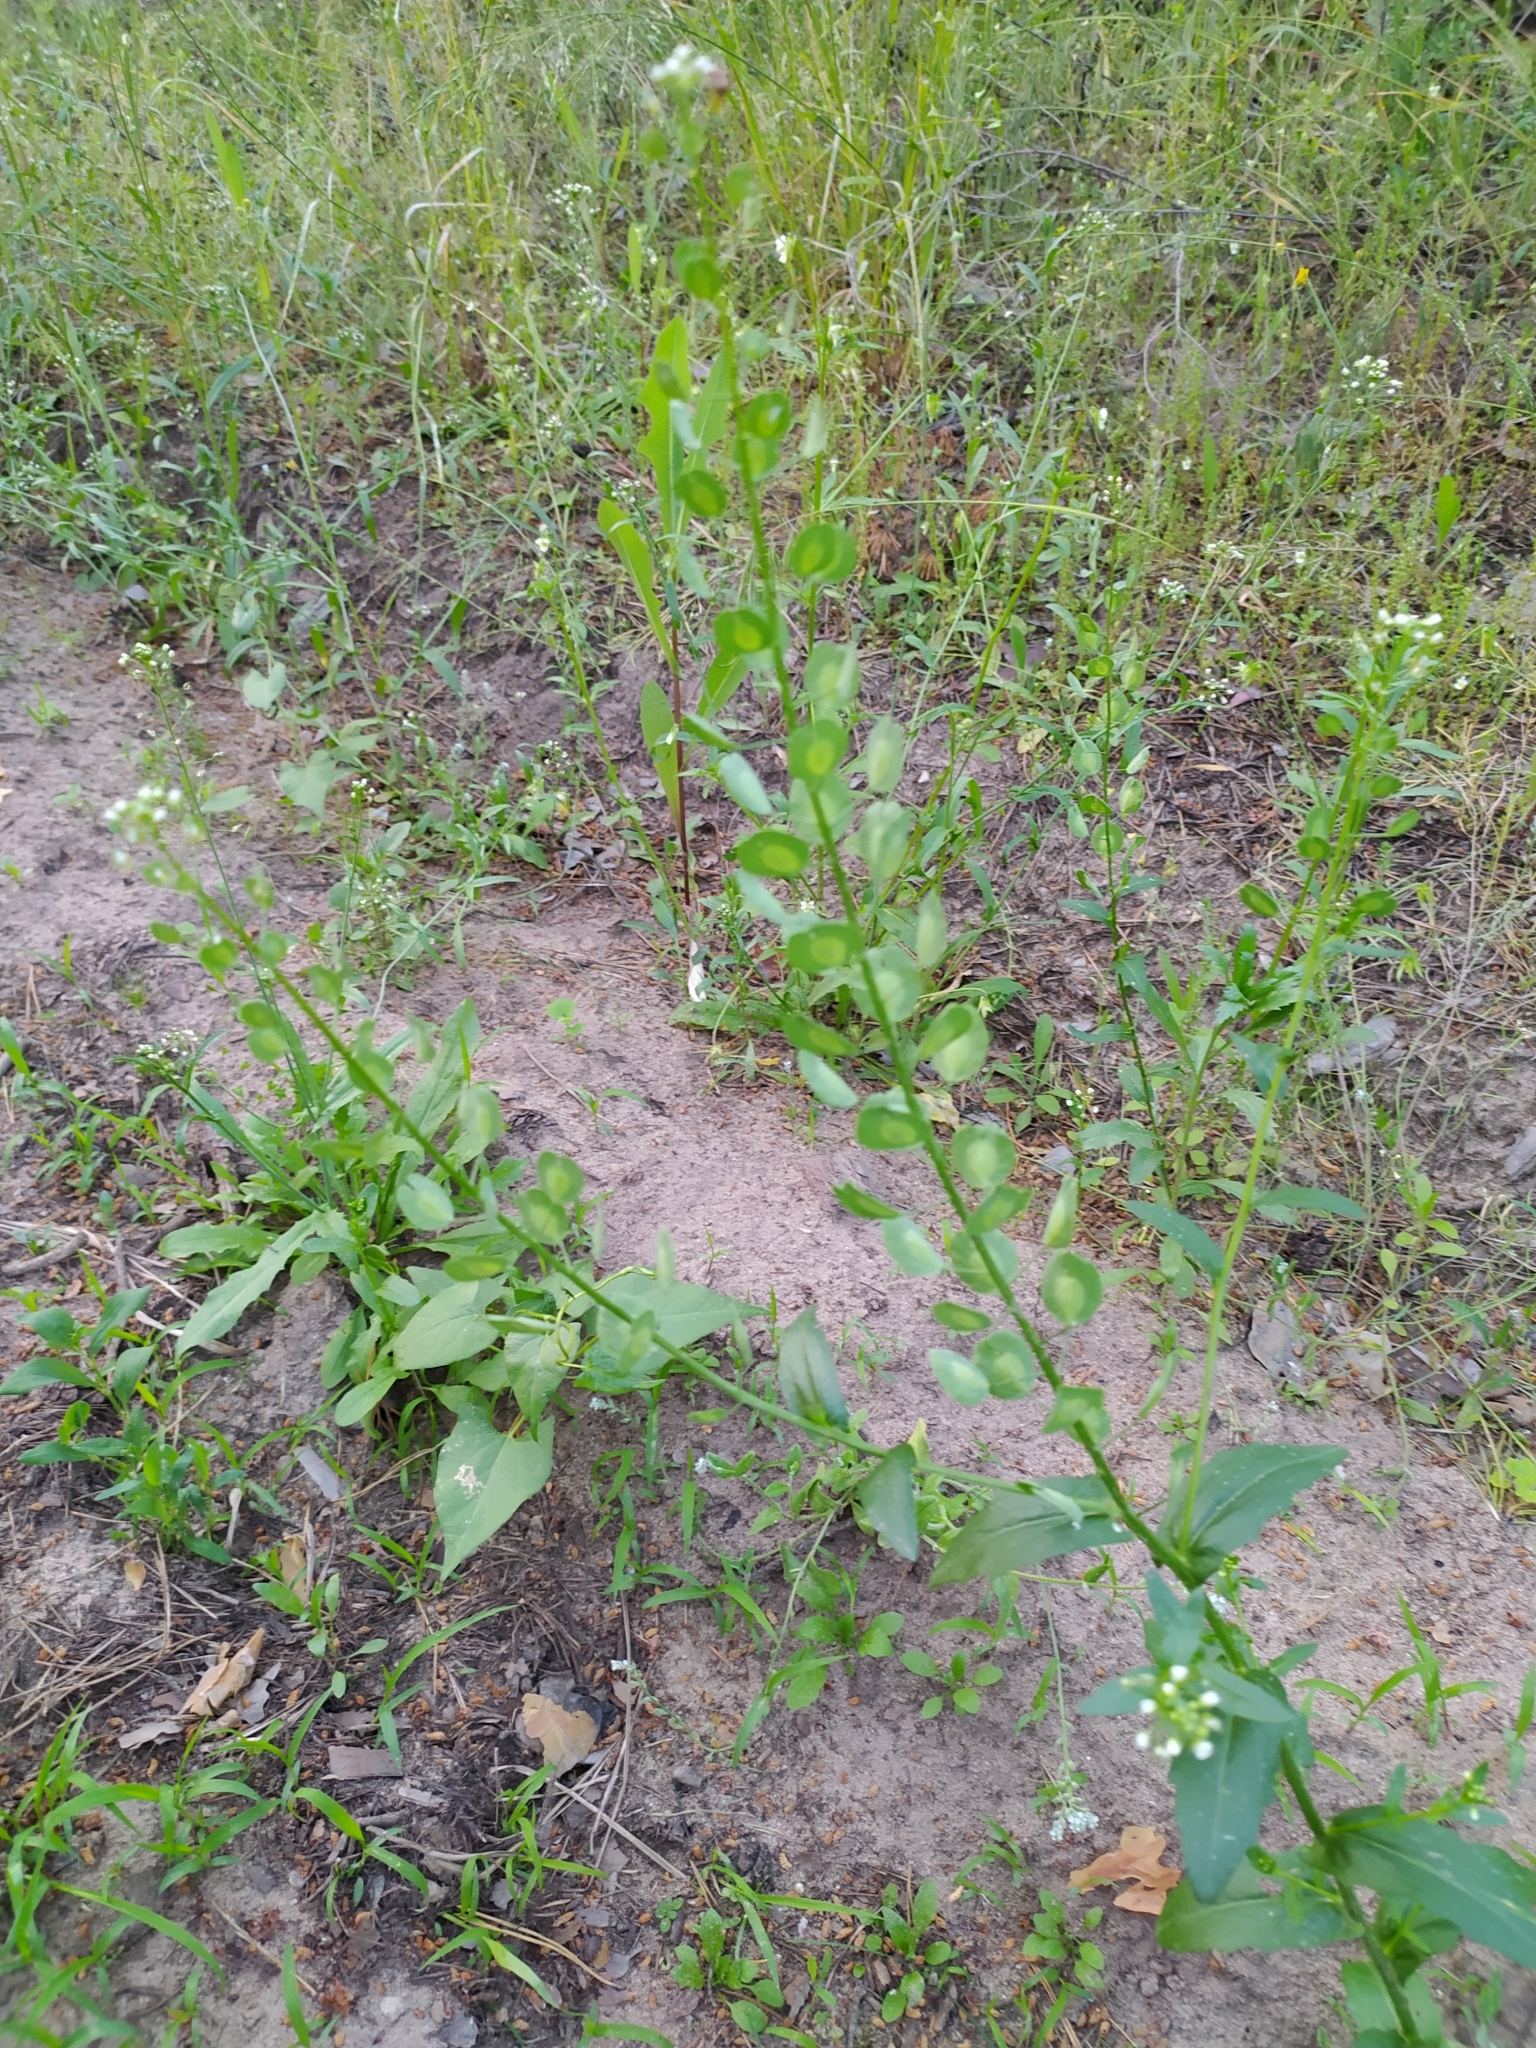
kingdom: Plantae
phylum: Tracheophyta
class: Magnoliopsida
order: Brassicales
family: Brassicaceae
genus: Thlaspi
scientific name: Thlaspi arvense
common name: Field pennycress
